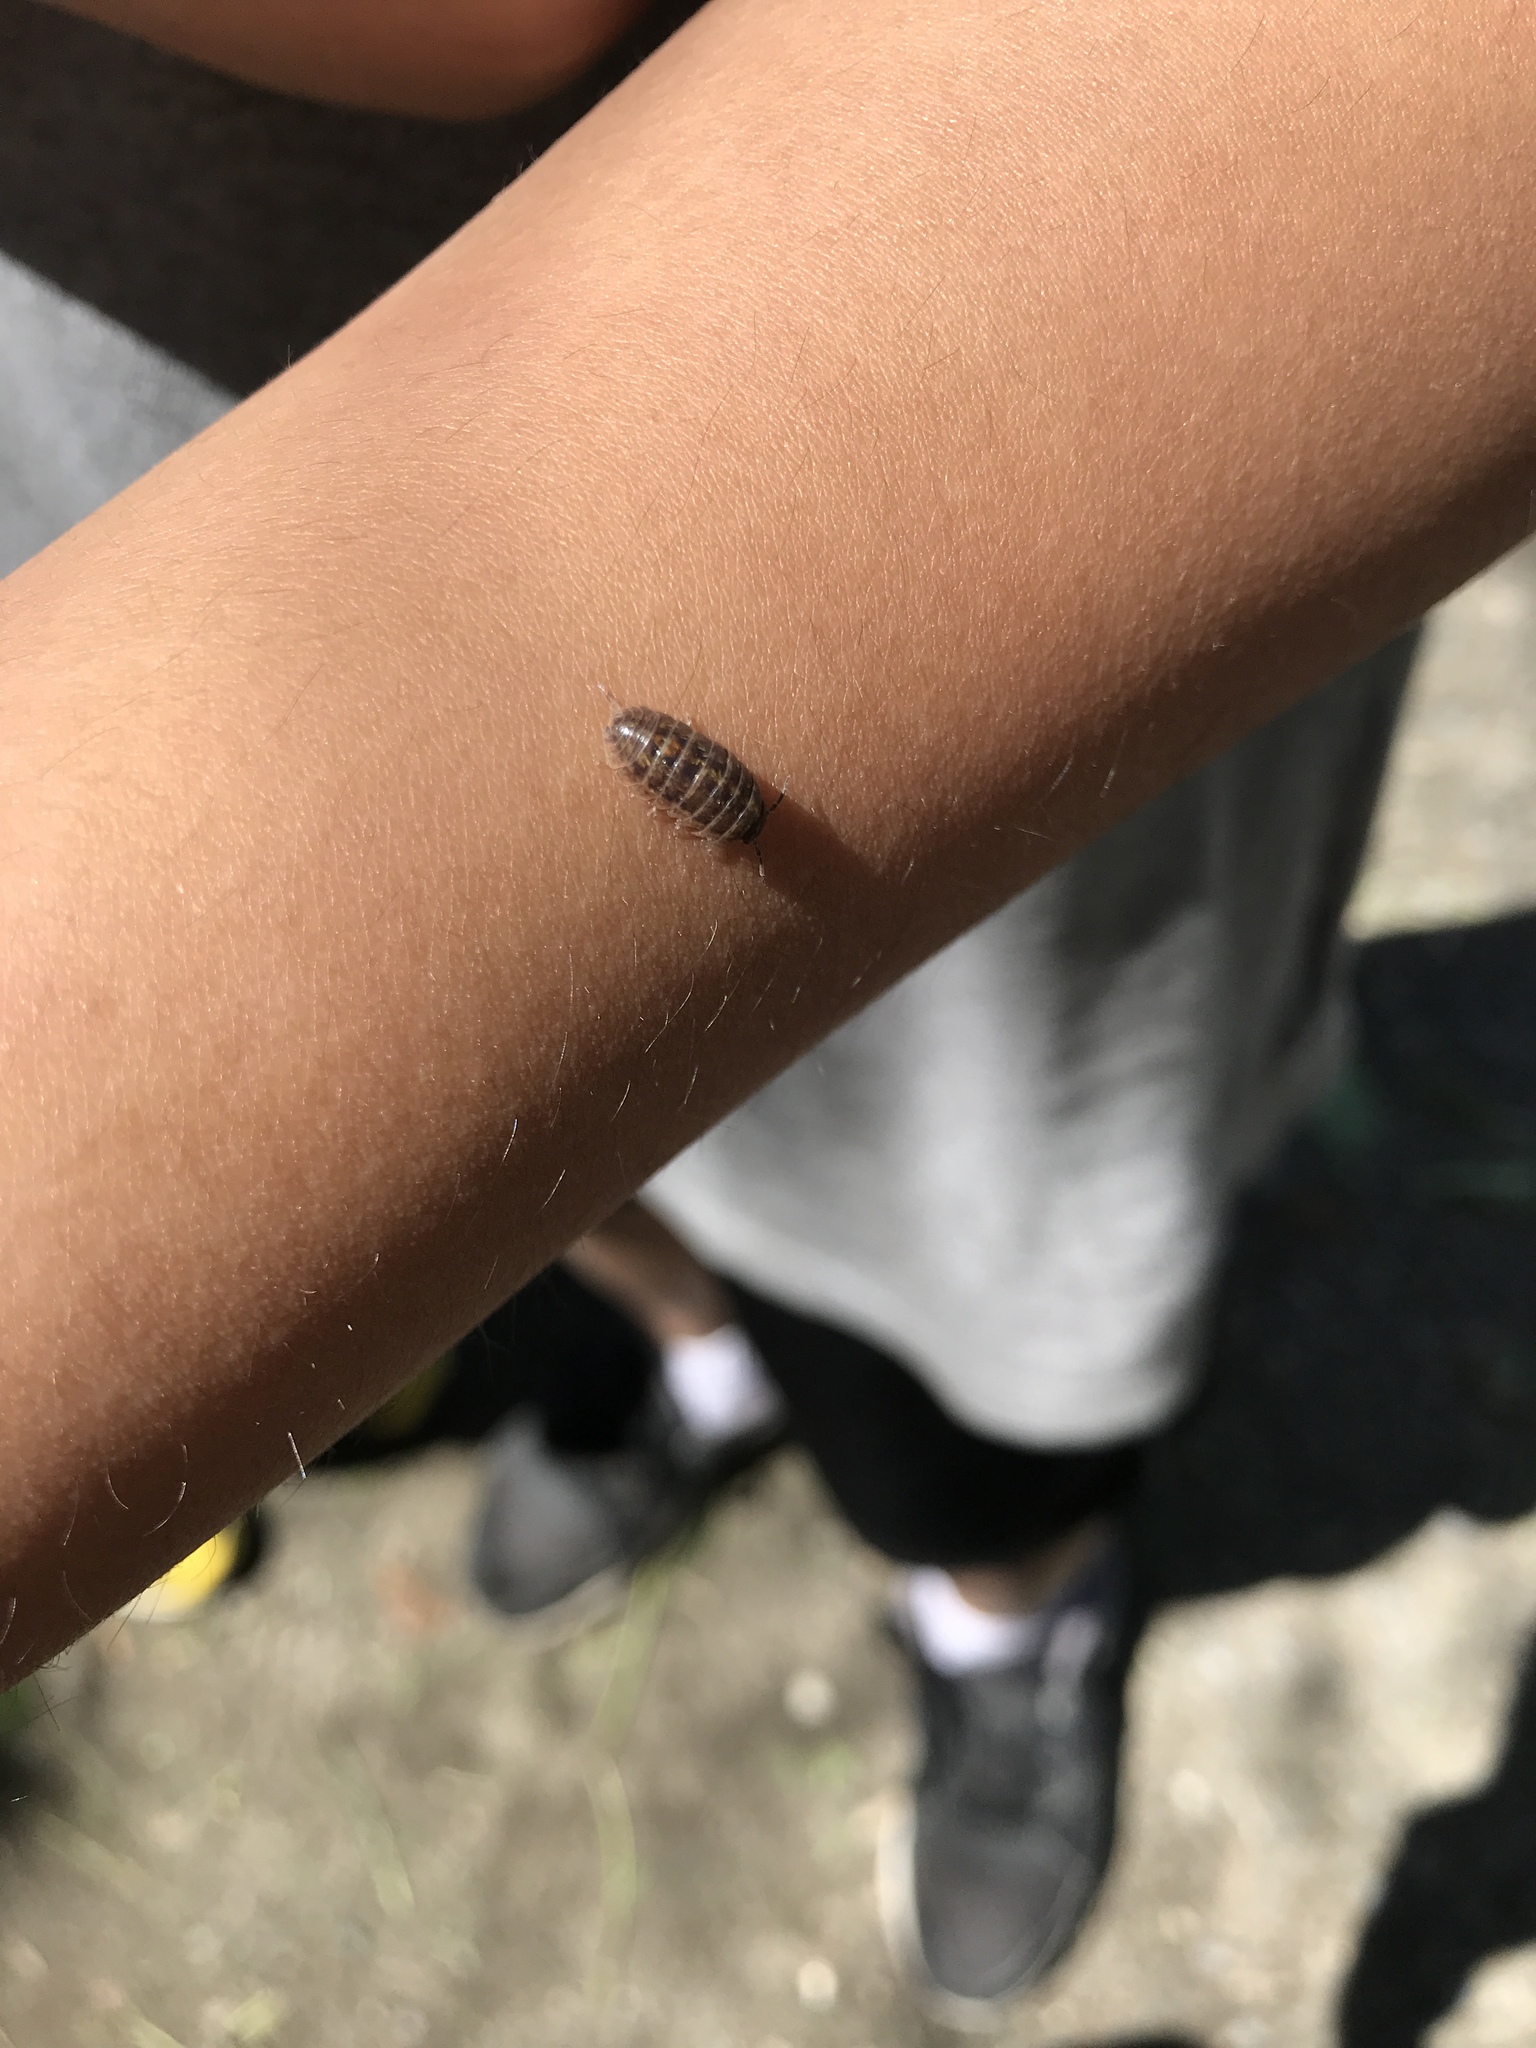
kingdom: Animalia
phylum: Arthropoda
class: Malacostraca
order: Isopoda
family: Armadillidiidae
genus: Armadillidium
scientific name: Armadillidium vulgare
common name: Common pill woodlouse
